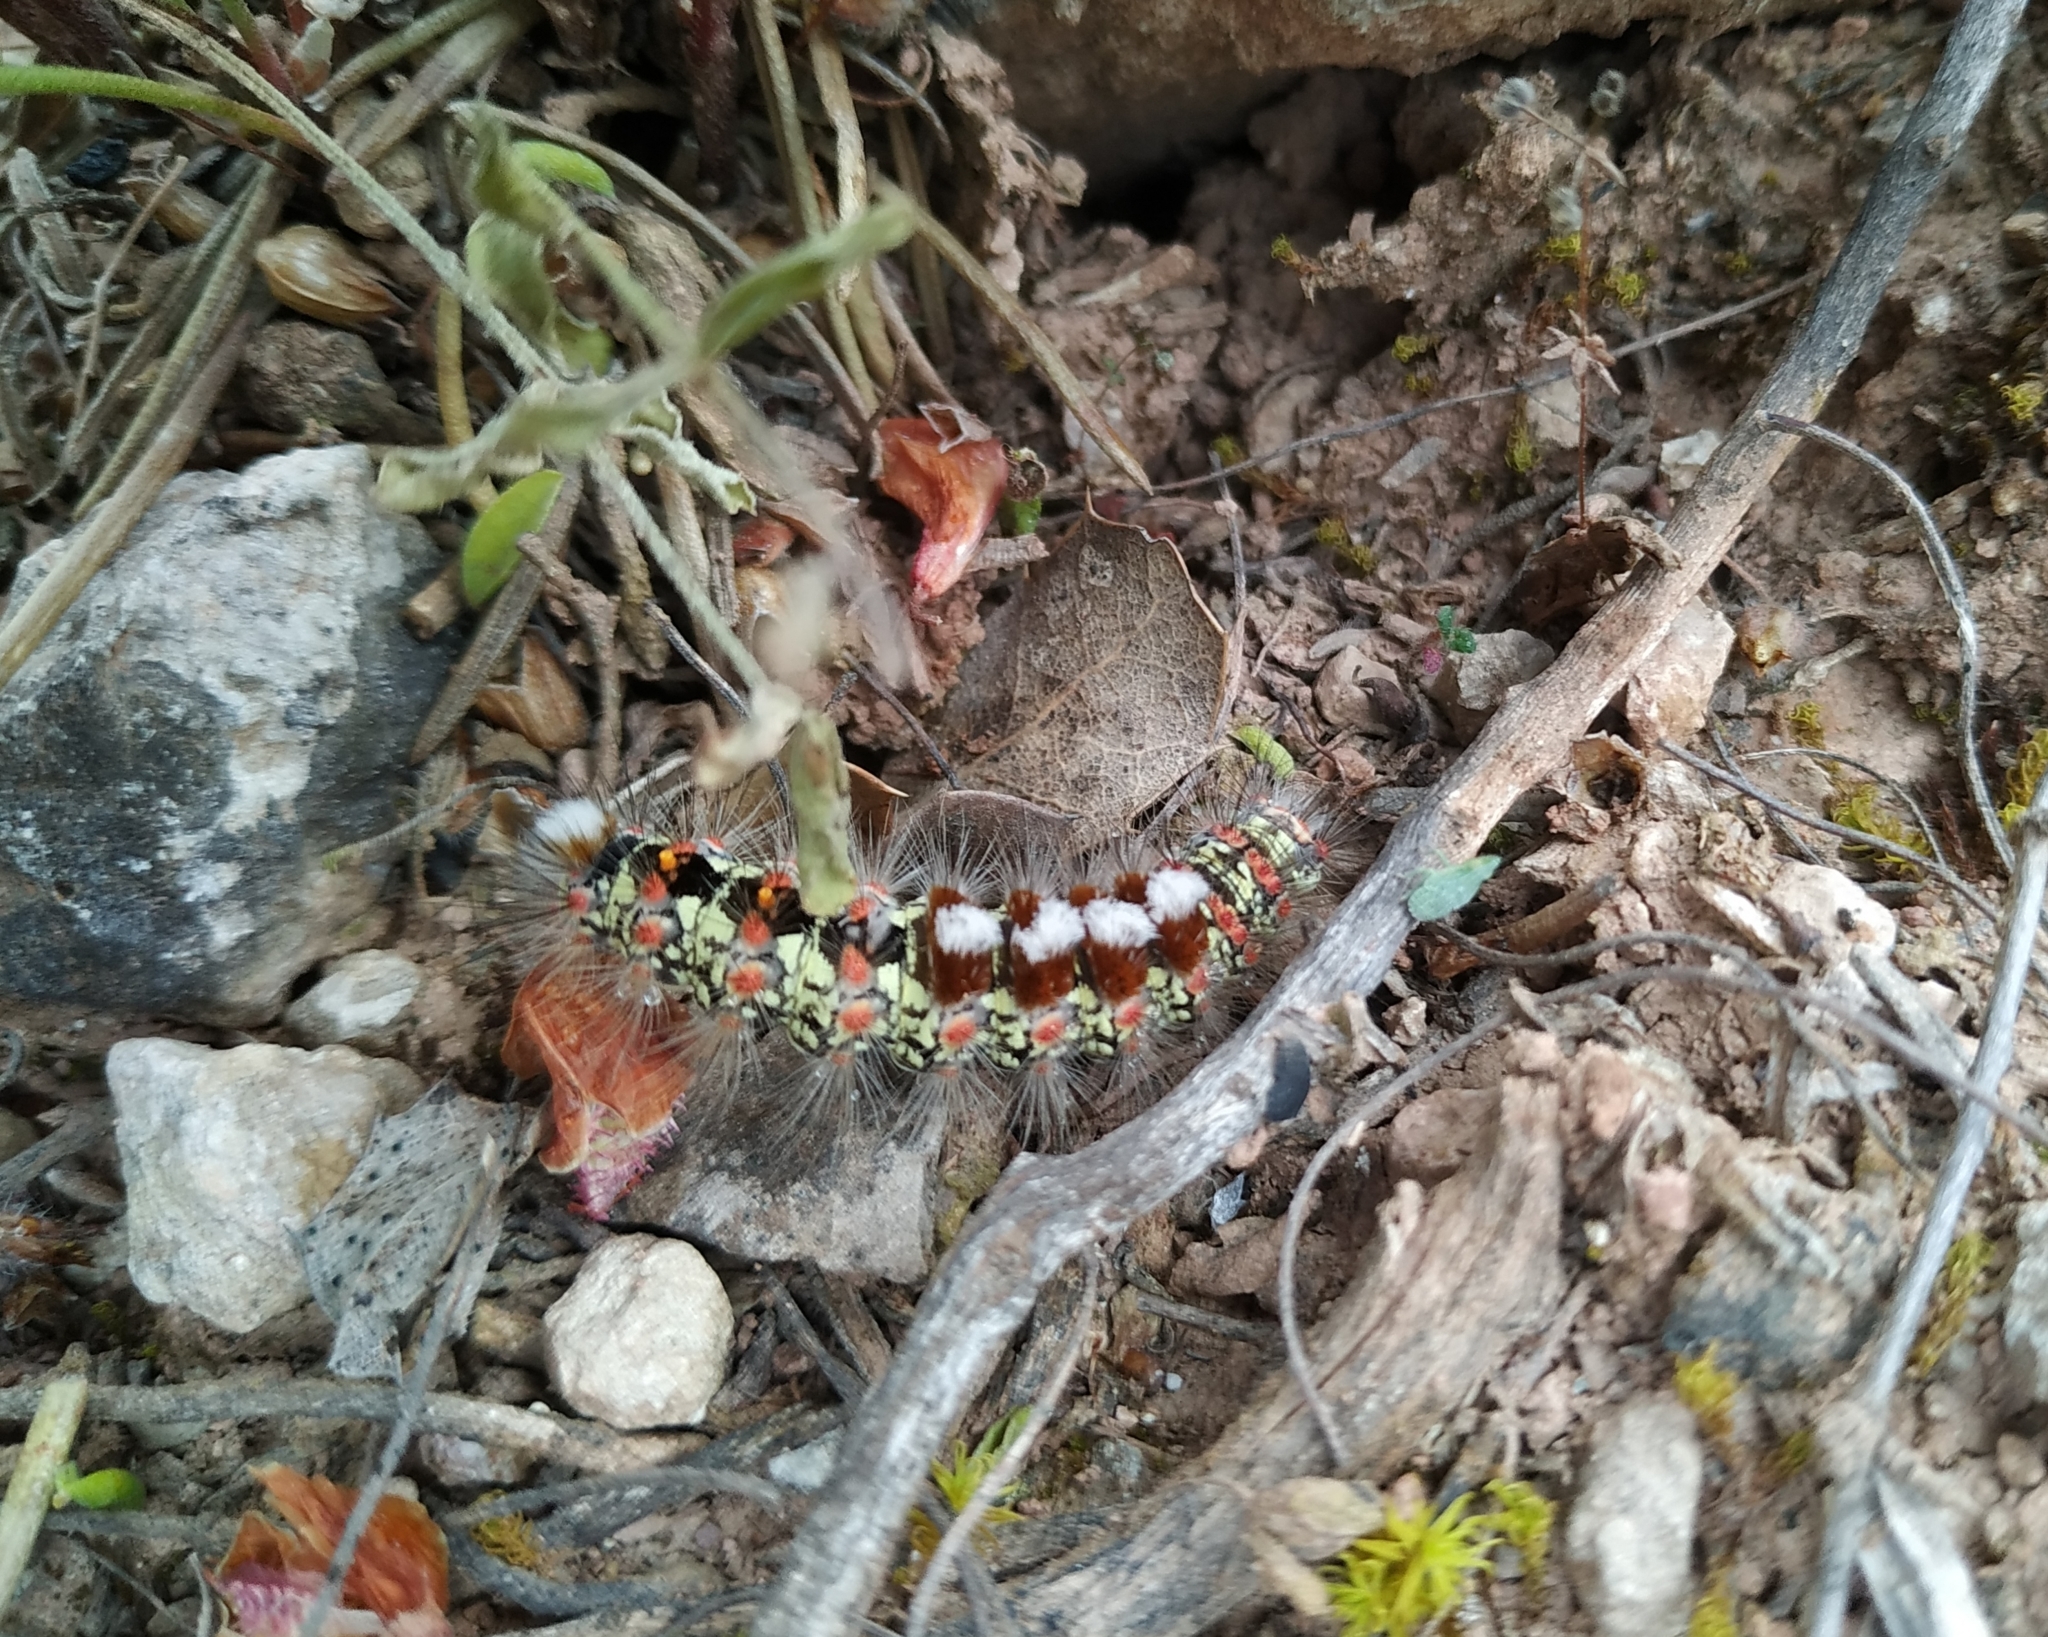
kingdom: Animalia
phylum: Arthropoda
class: Insecta
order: Lepidoptera
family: Erebidae
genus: Orgyia
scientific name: Orgyia dubia
